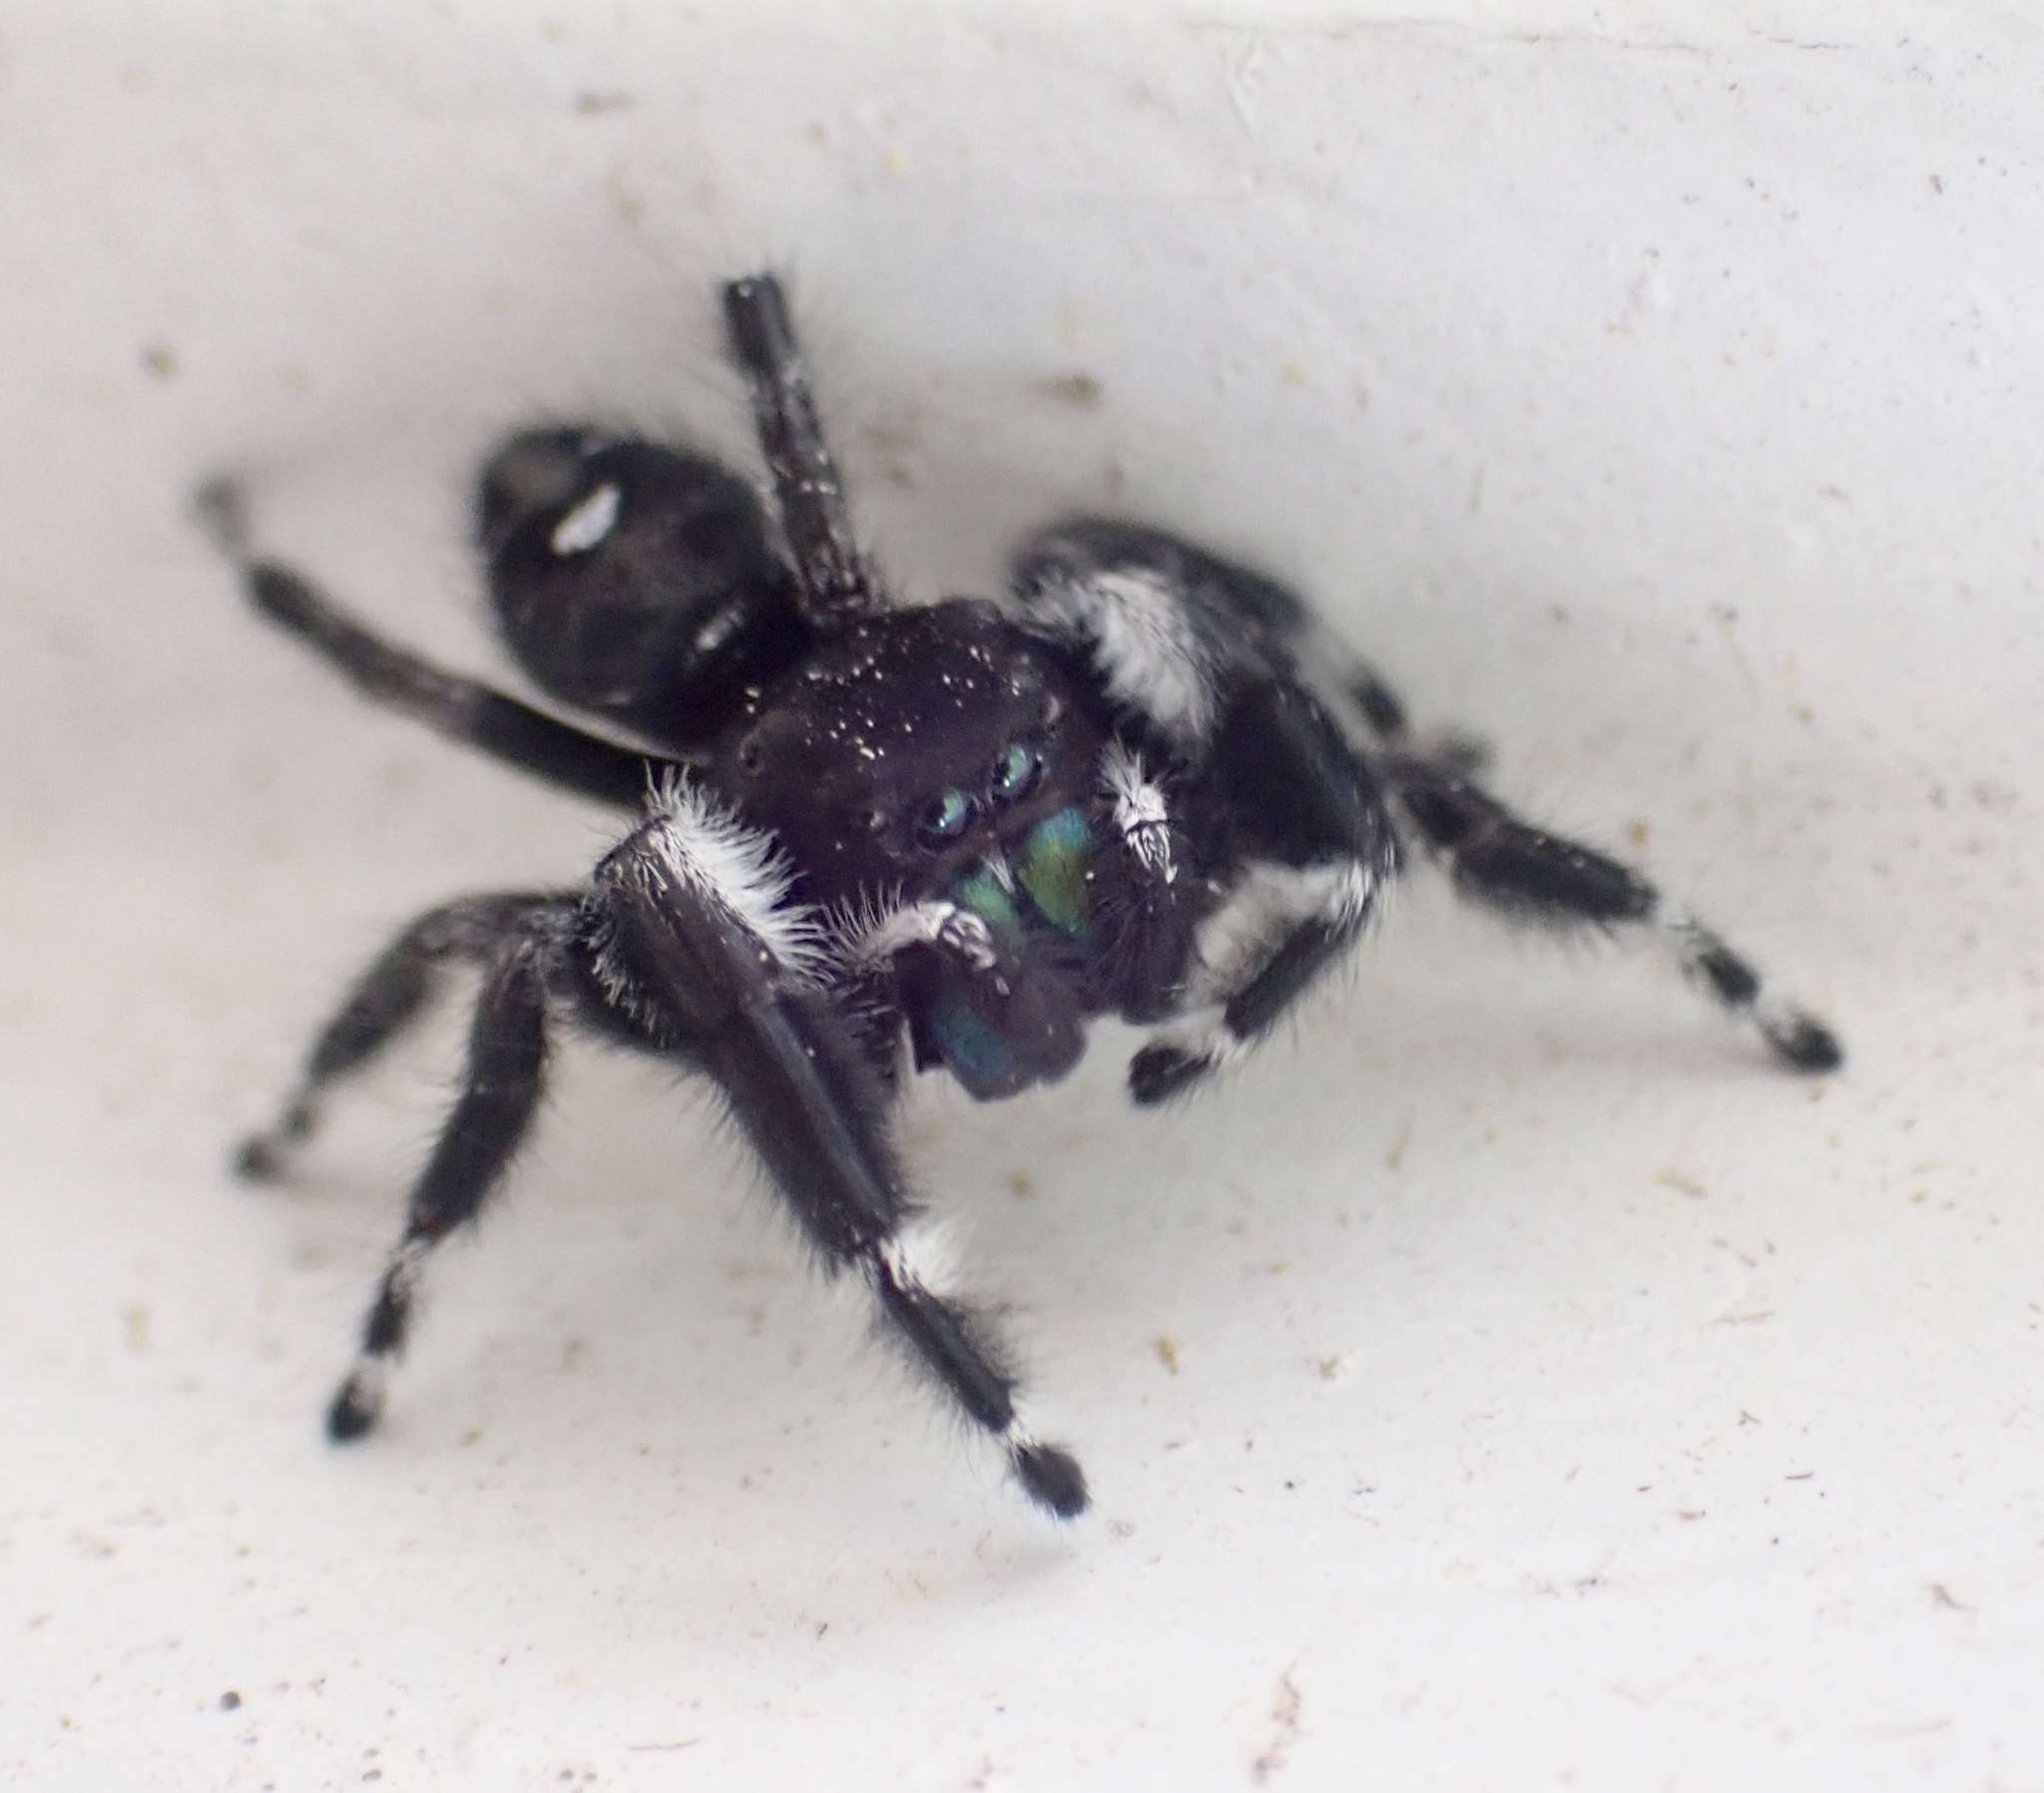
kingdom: Animalia
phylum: Arthropoda
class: Arachnida
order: Araneae
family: Salticidae
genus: Phidippus
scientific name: Phidippus audax
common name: Bold jumper
